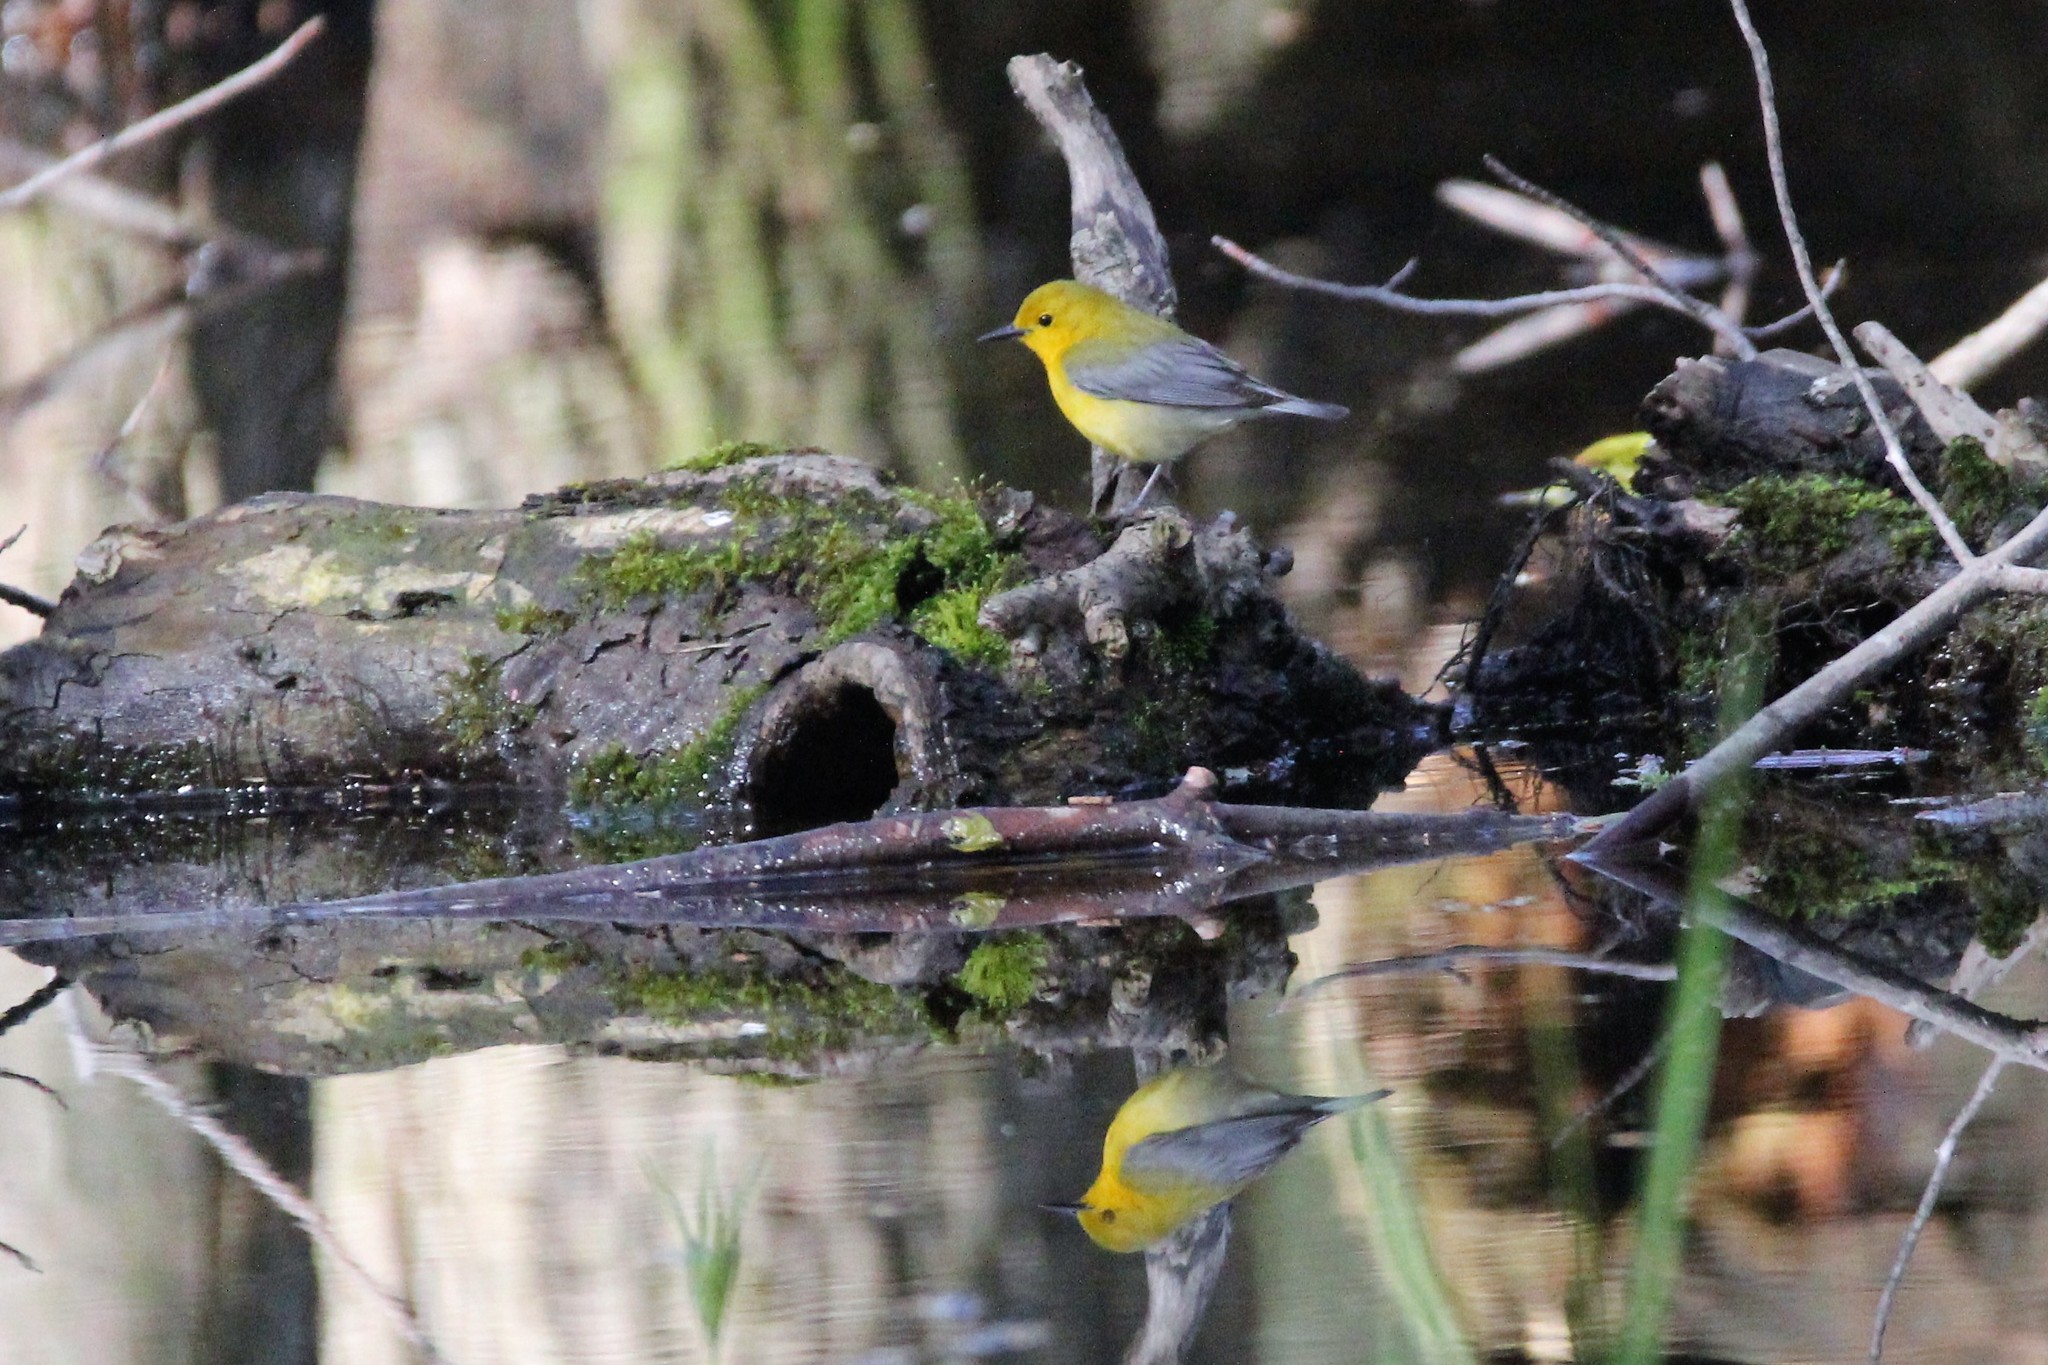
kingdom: Animalia
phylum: Chordata
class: Aves
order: Passeriformes
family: Parulidae
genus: Protonotaria
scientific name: Protonotaria citrea
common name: Prothonotary warbler
